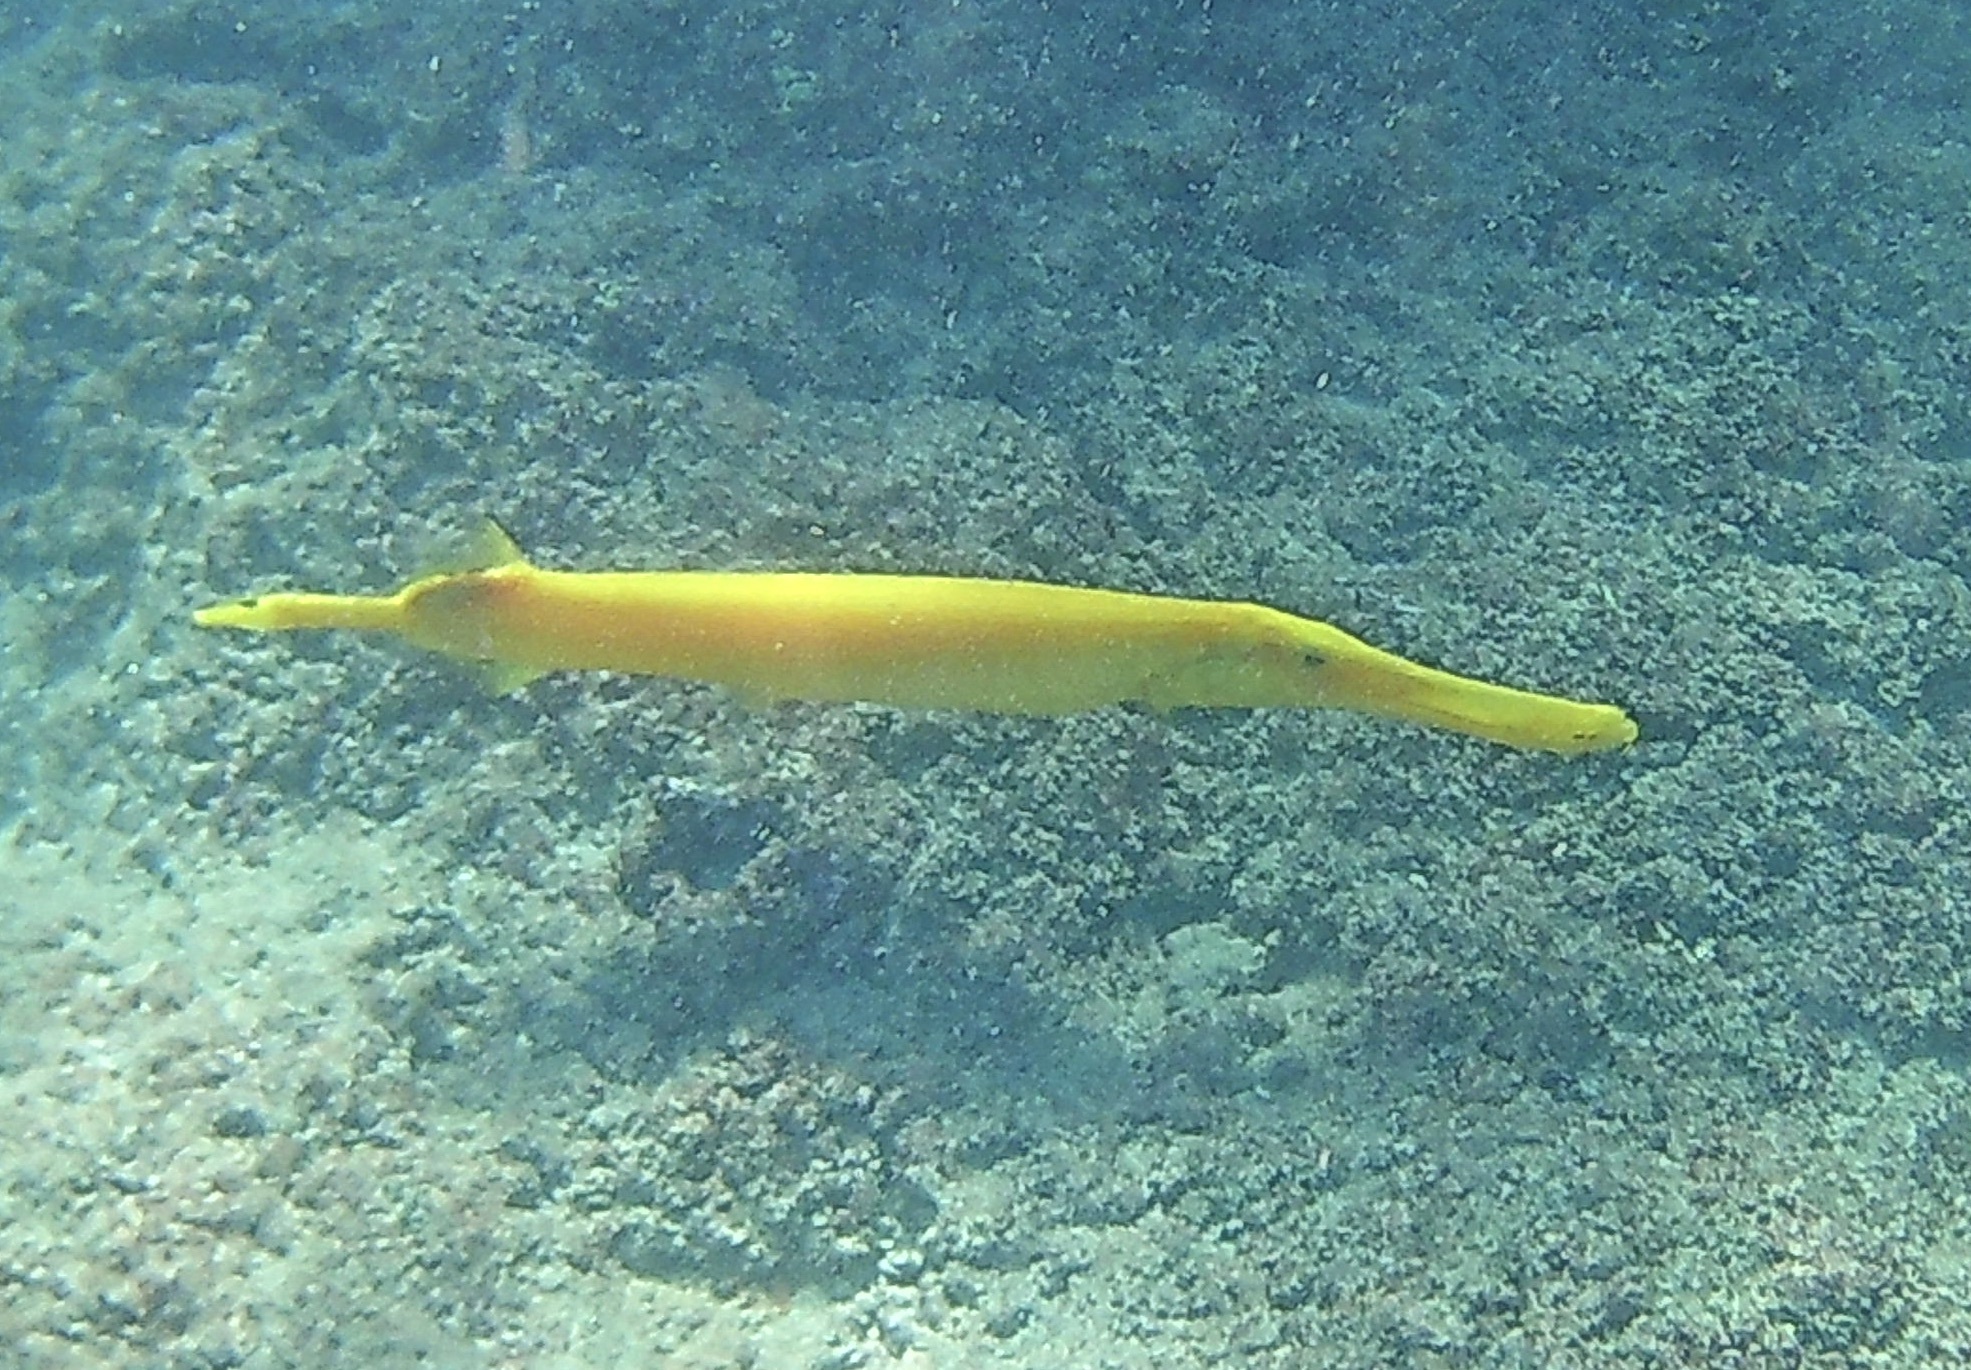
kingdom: Animalia
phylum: Chordata
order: Syngnathiformes
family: Aulostomidae
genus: Aulostomus
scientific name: Aulostomus chinensis
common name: Chinese trumpetfish
